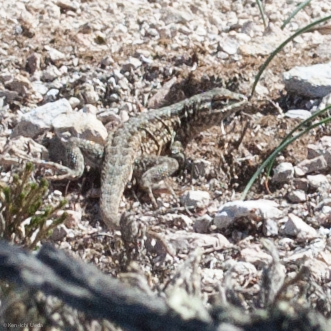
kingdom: Animalia
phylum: Chordata
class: Squamata
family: Phrynosomatidae
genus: Uta
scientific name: Uta stansburiana
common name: Side-blotched lizard
